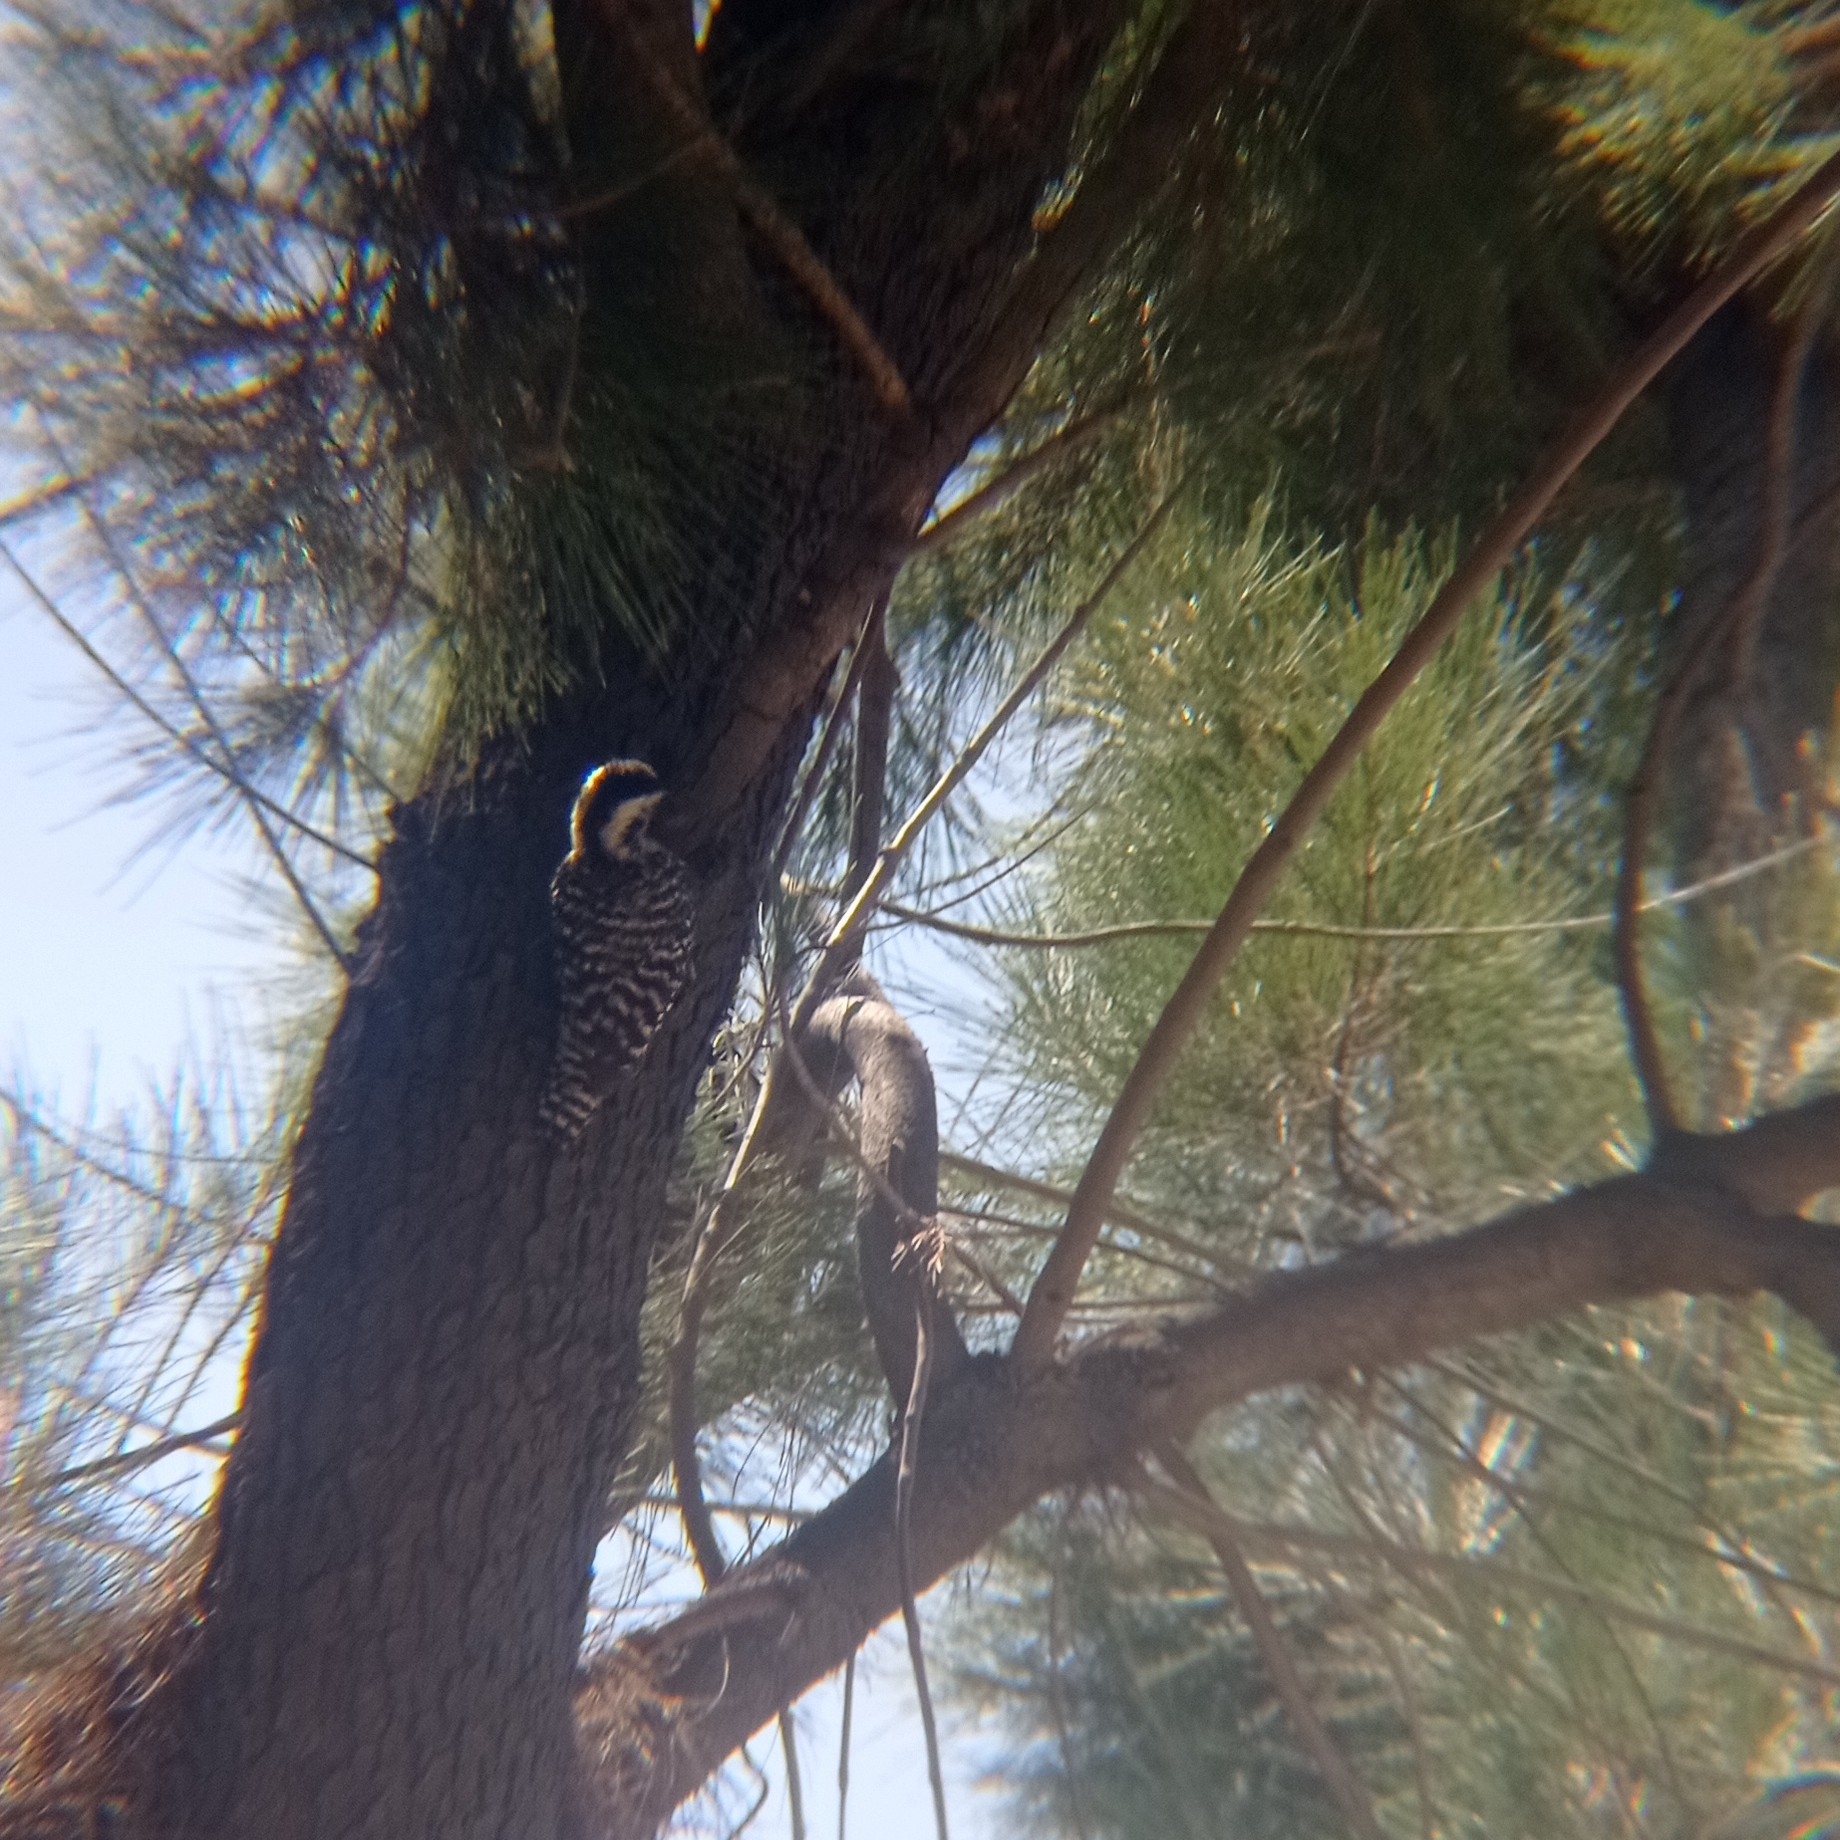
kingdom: Animalia
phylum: Chordata
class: Aves
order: Piciformes
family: Picidae
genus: Veniliornis
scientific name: Veniliornis lignarius
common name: Striped woodpecker
